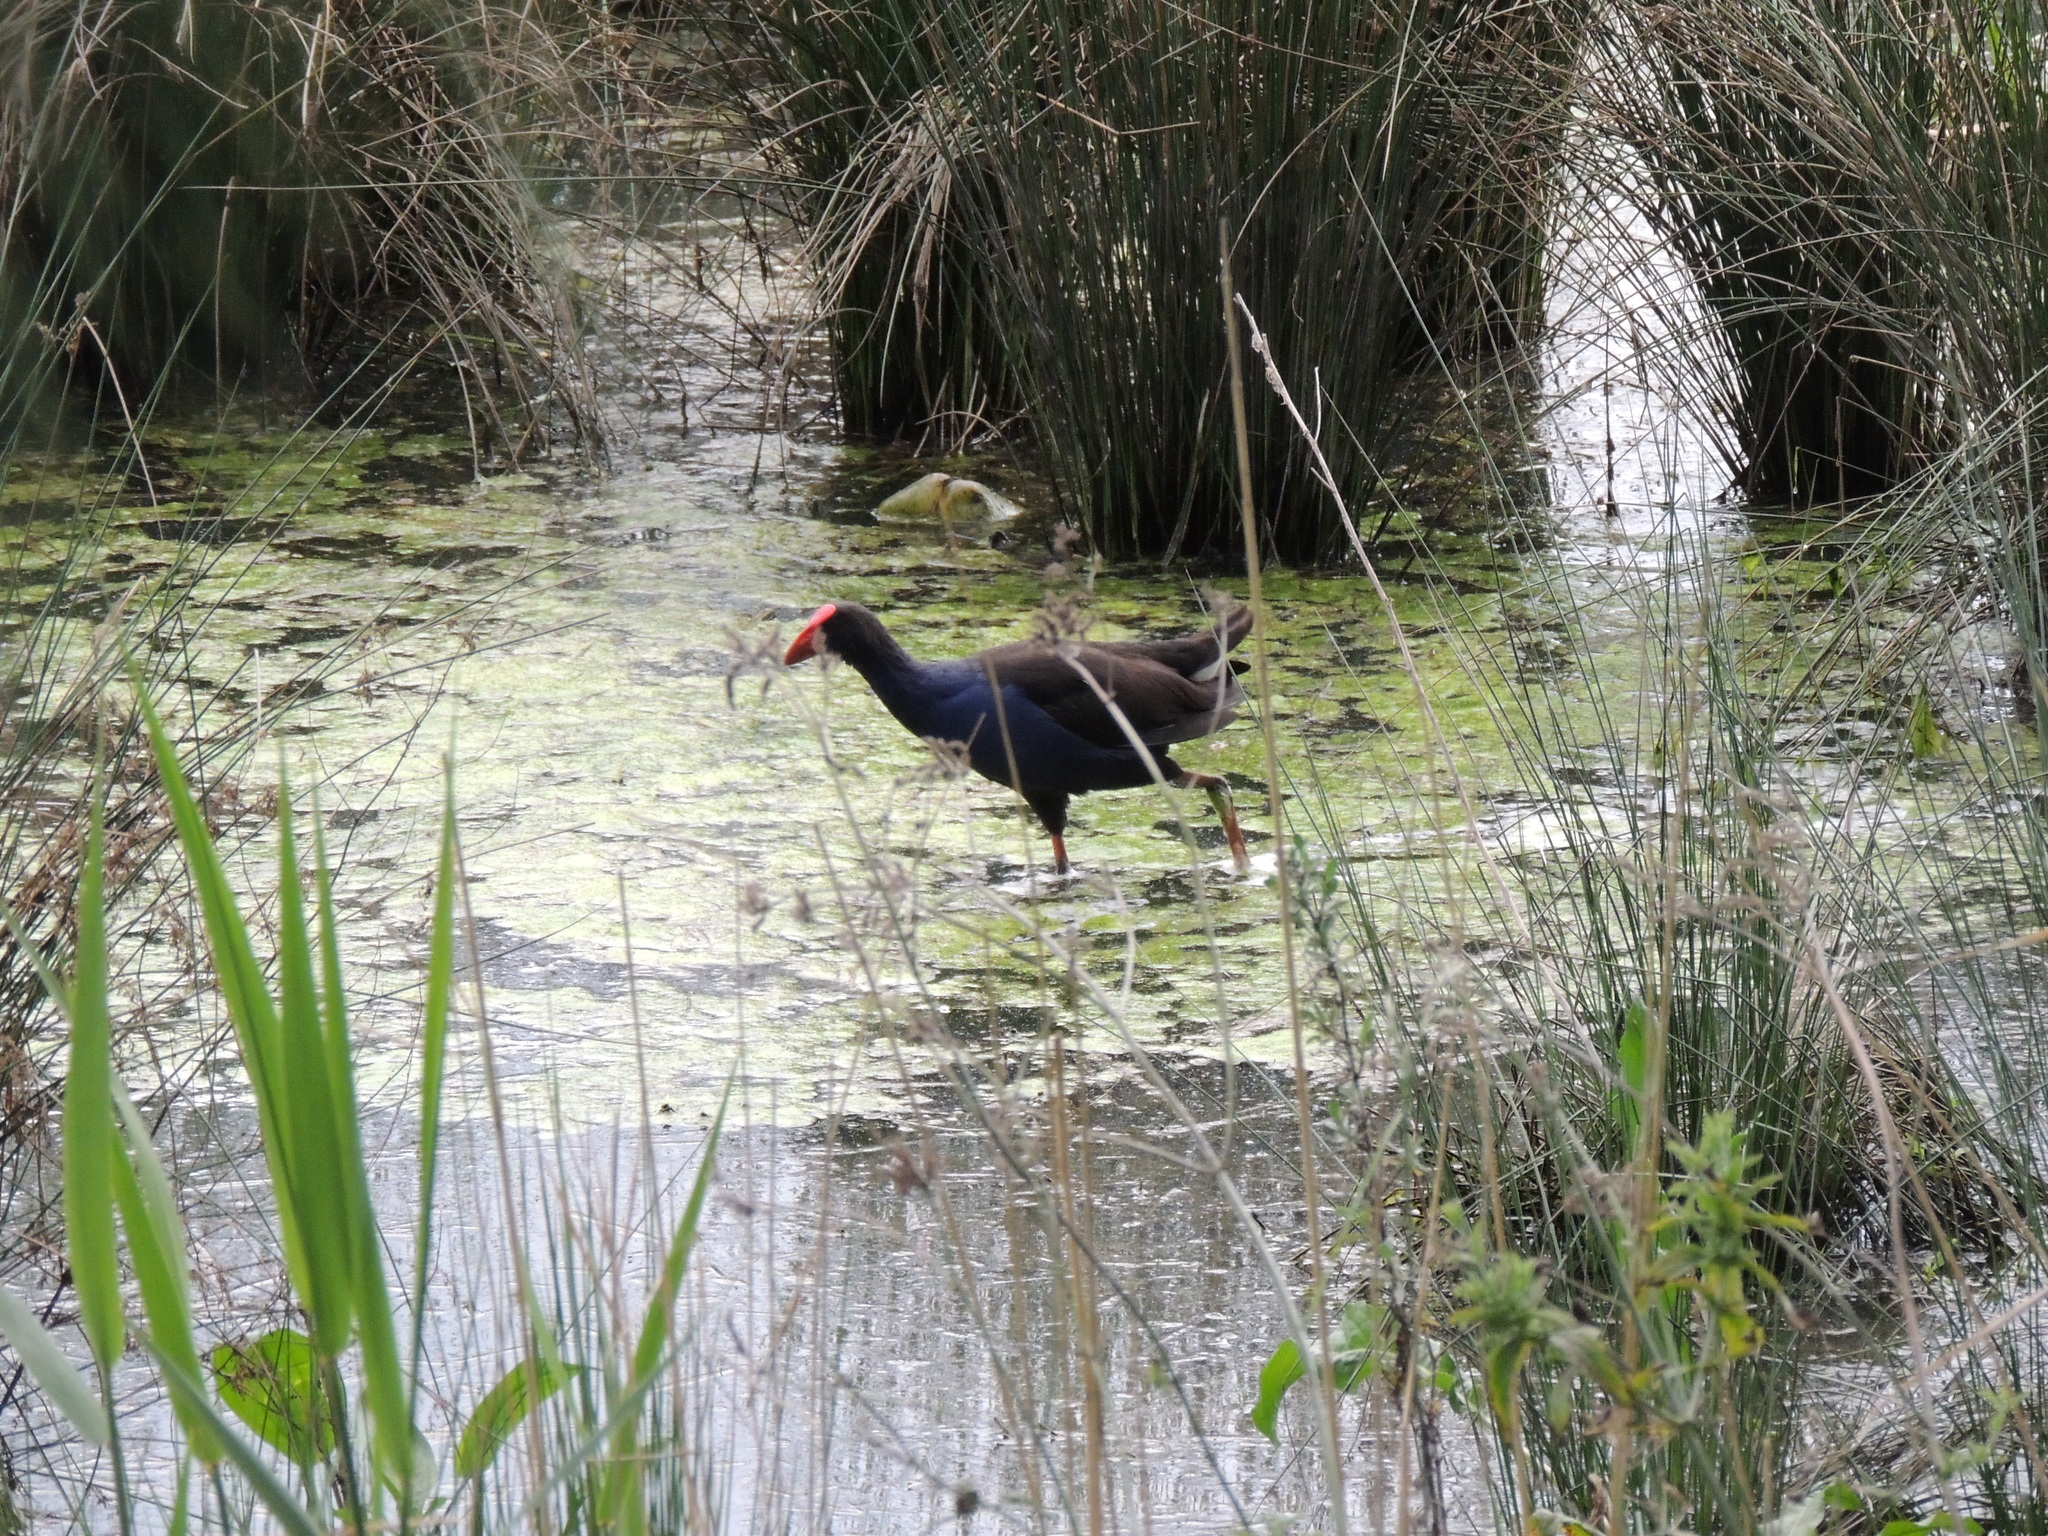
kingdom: Animalia
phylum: Chordata
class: Aves
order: Gruiformes
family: Rallidae
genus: Porphyrio
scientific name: Porphyrio melanotus
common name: Australasian swamphen
